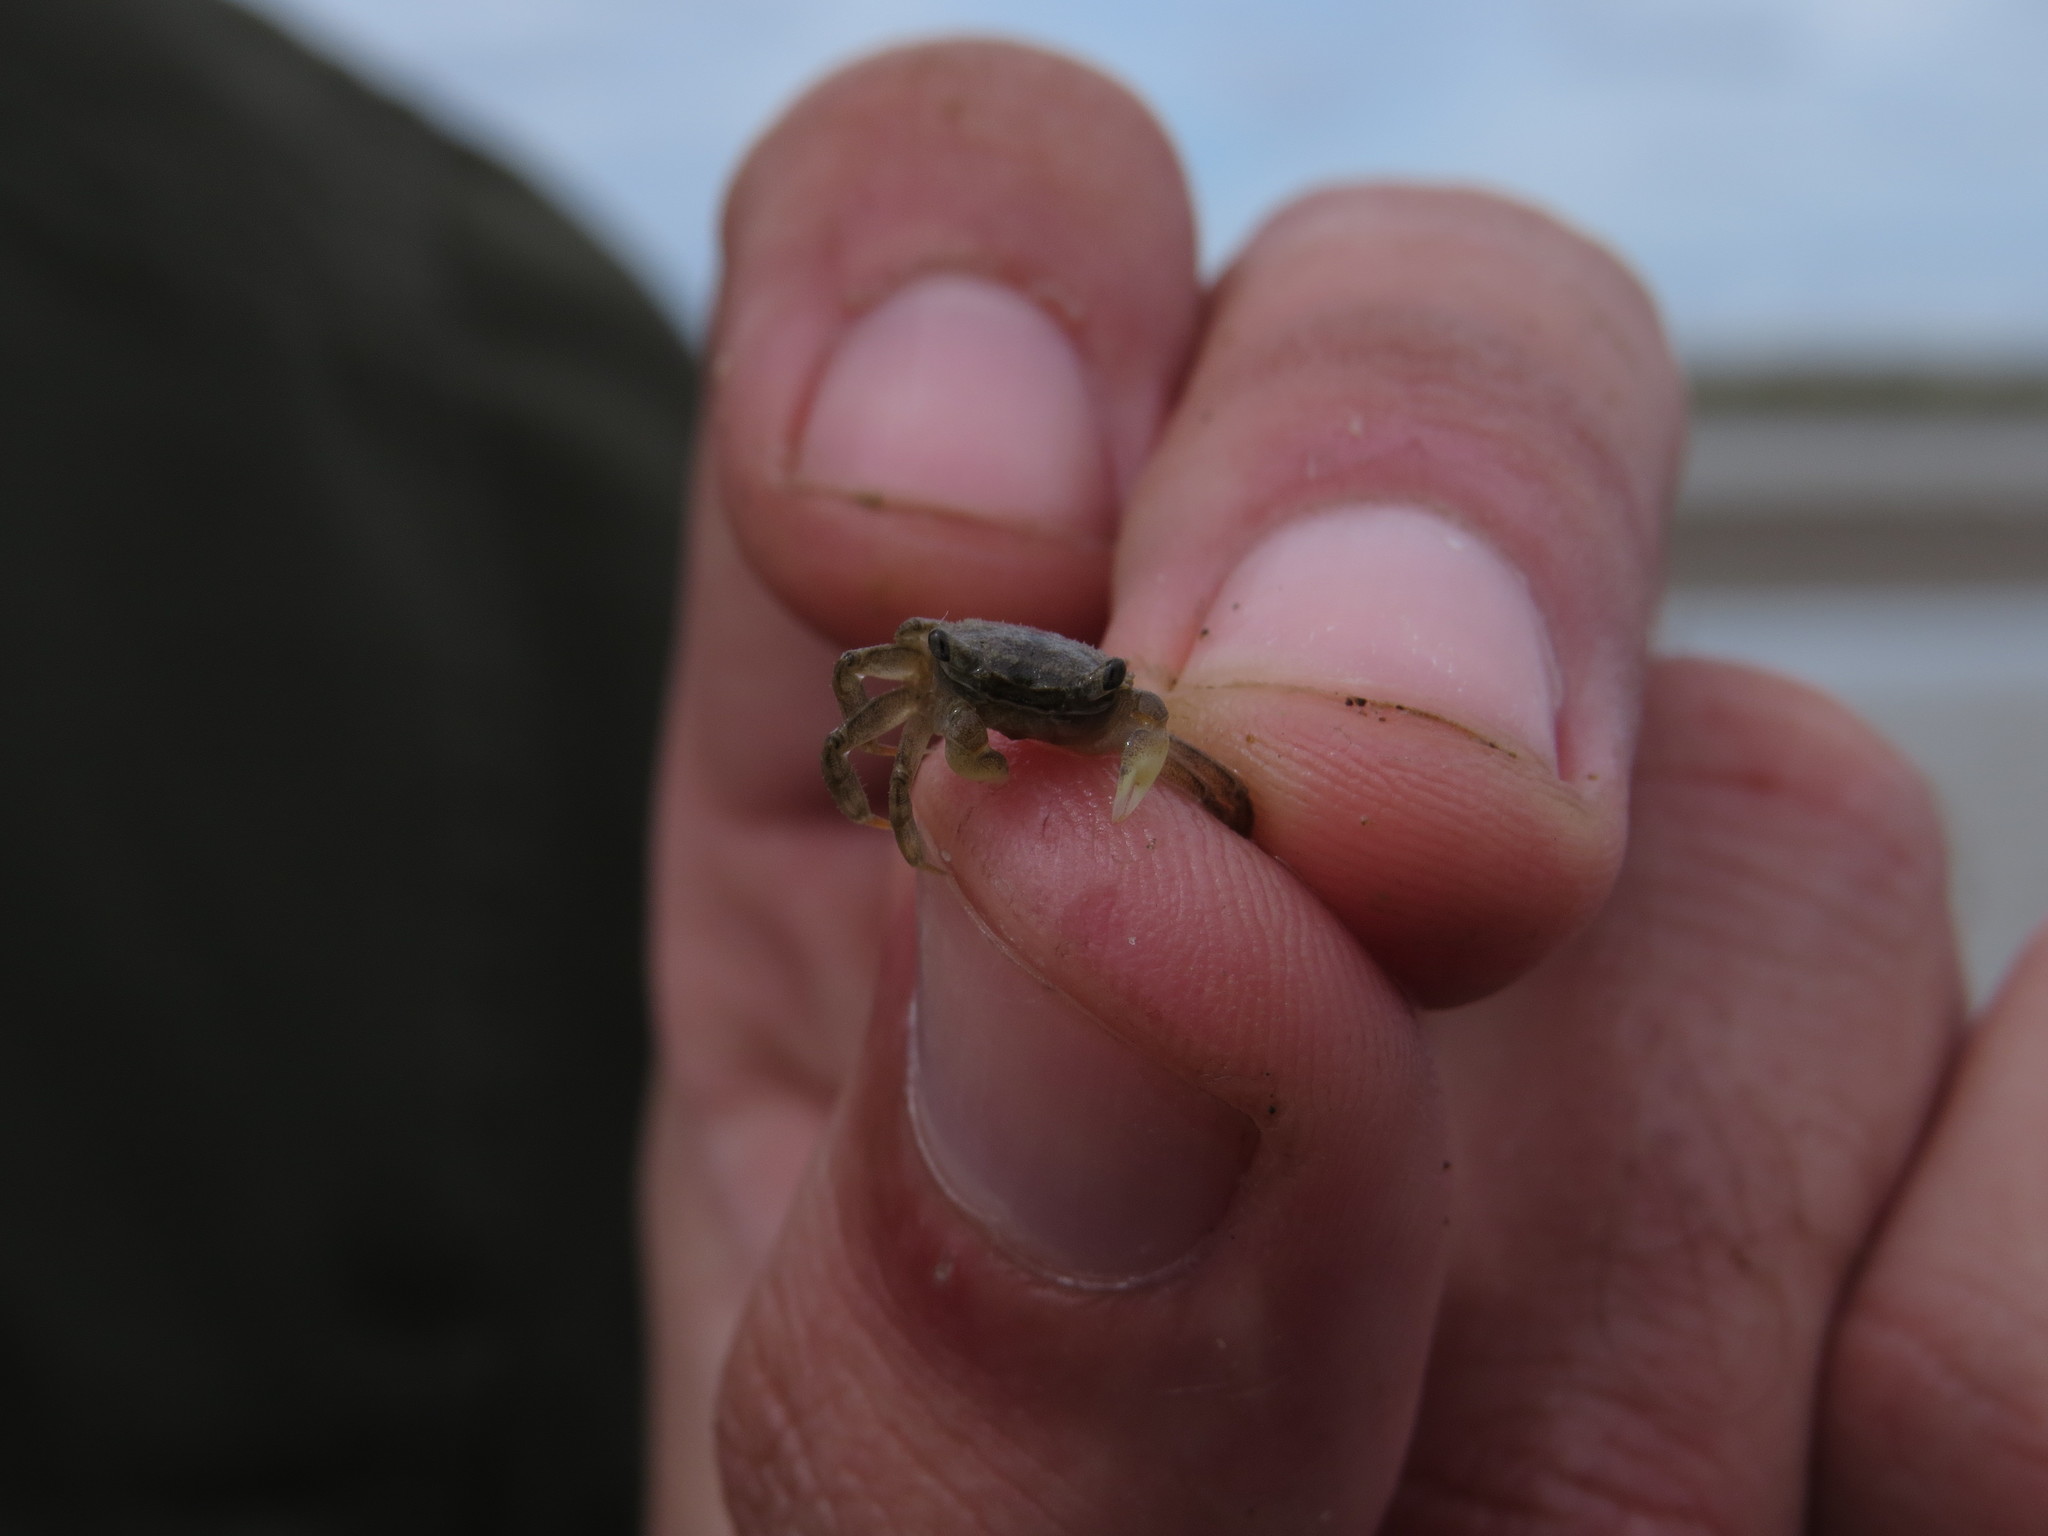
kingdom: Animalia
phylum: Arthropoda
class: Malacostraca
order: Decapoda
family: Varunidae
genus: Neohelice
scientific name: Neohelice granulata
